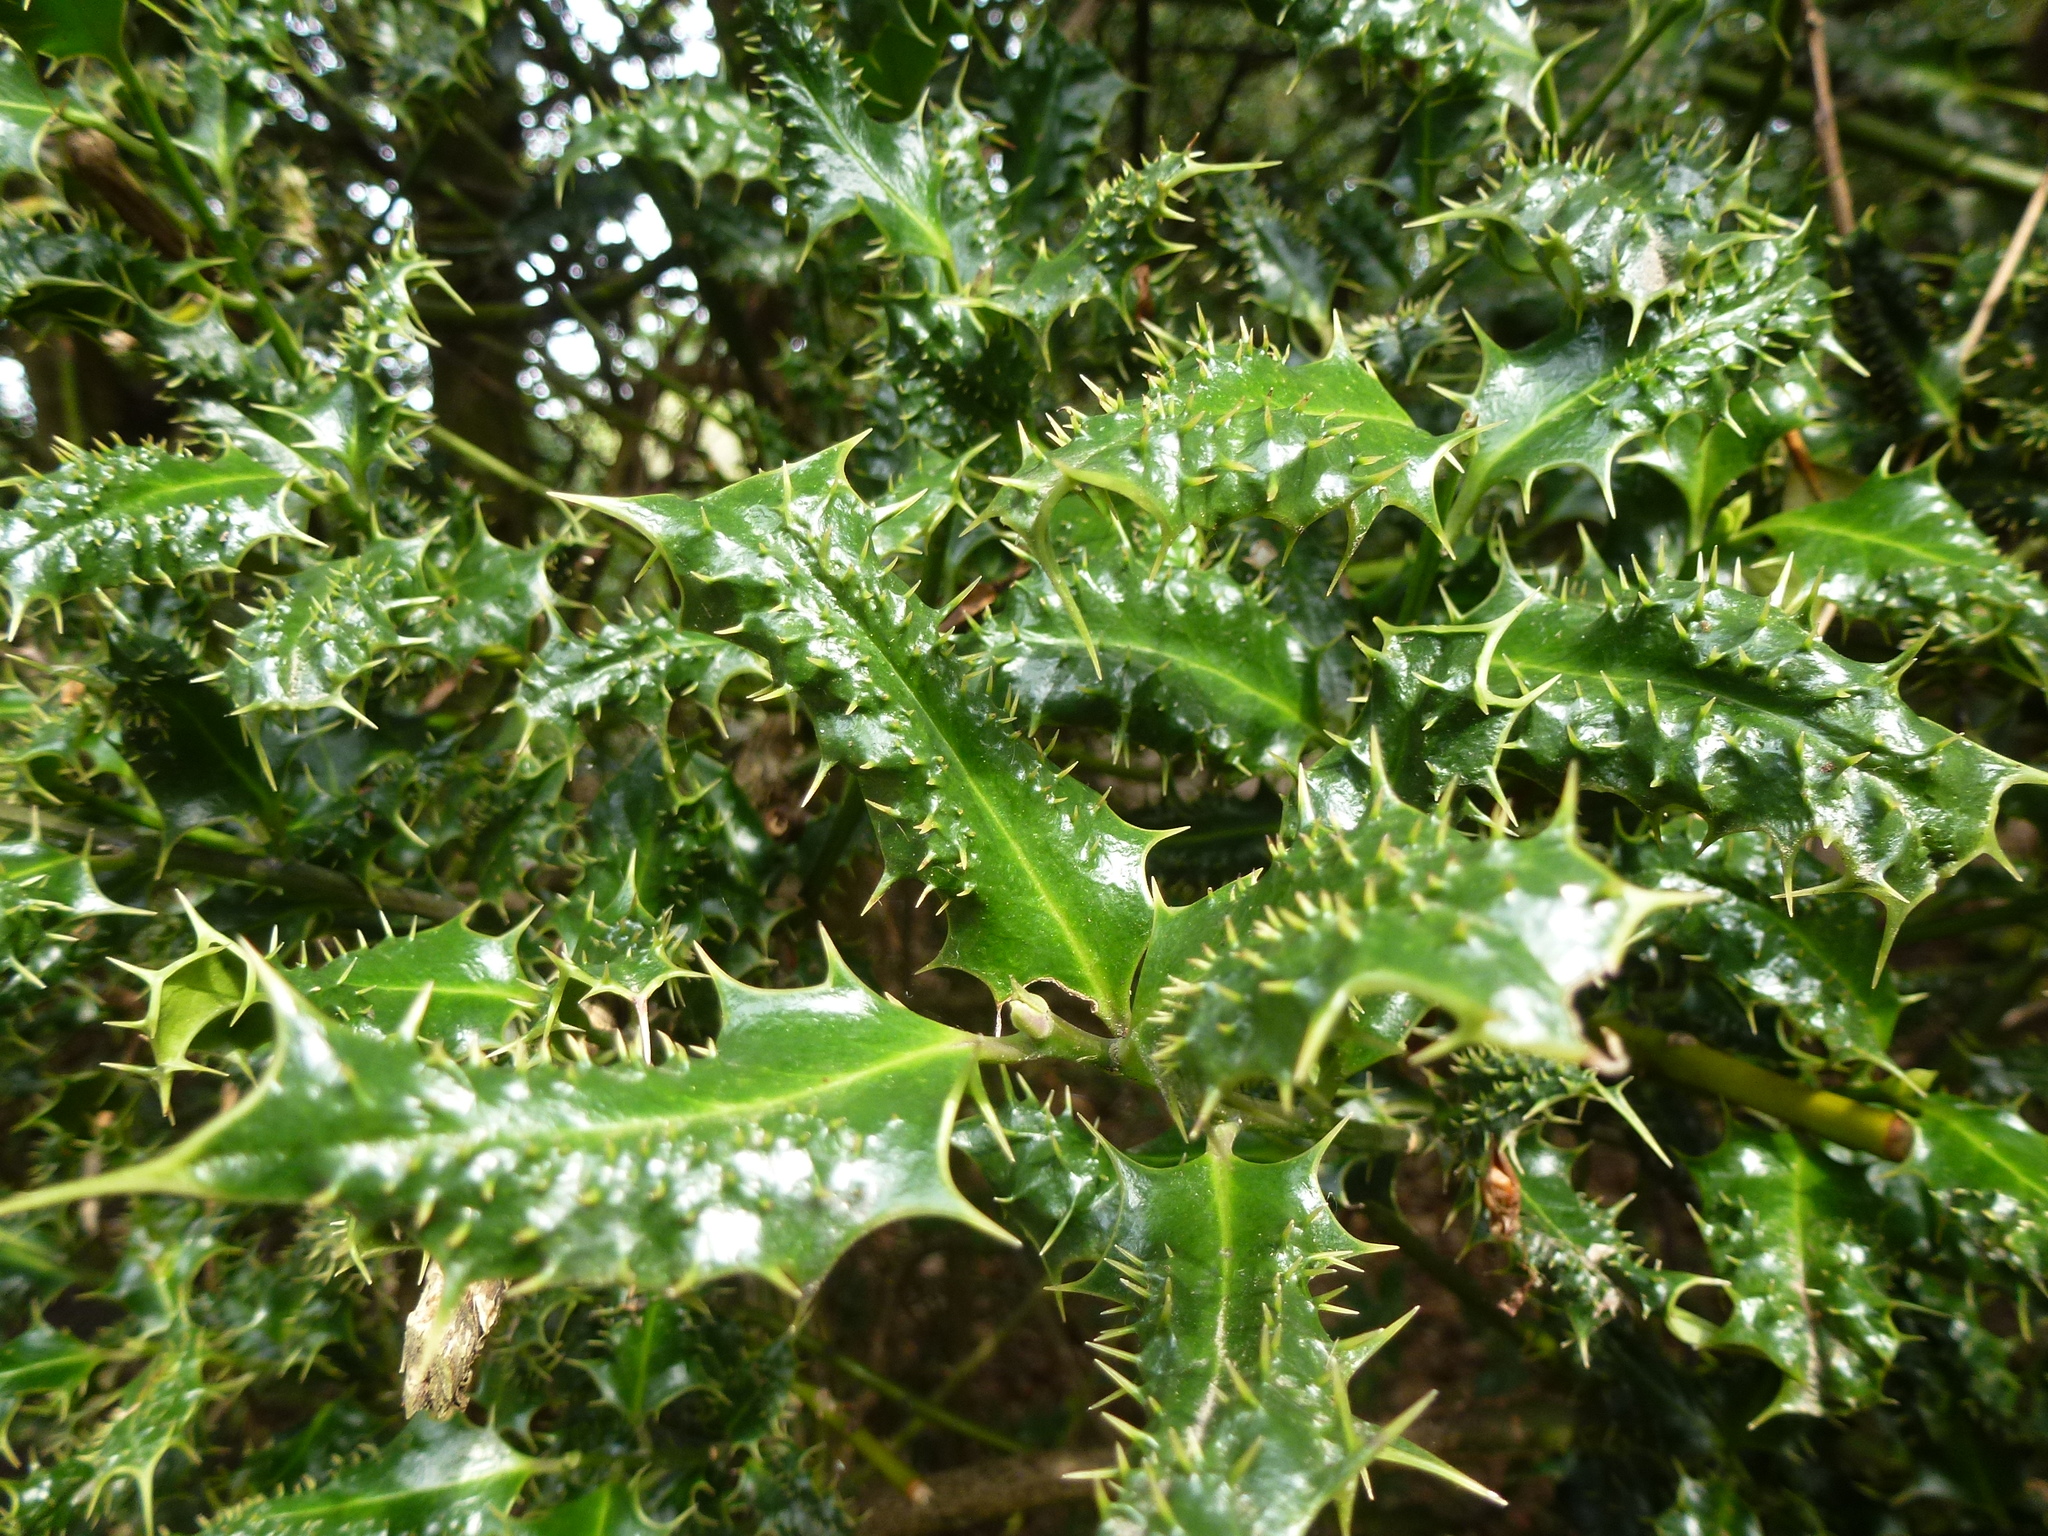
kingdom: Plantae
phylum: Tracheophyta
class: Magnoliopsida
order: Aquifoliales
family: Aquifoliaceae
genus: Ilex
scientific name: Ilex aquifolium
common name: English holly
